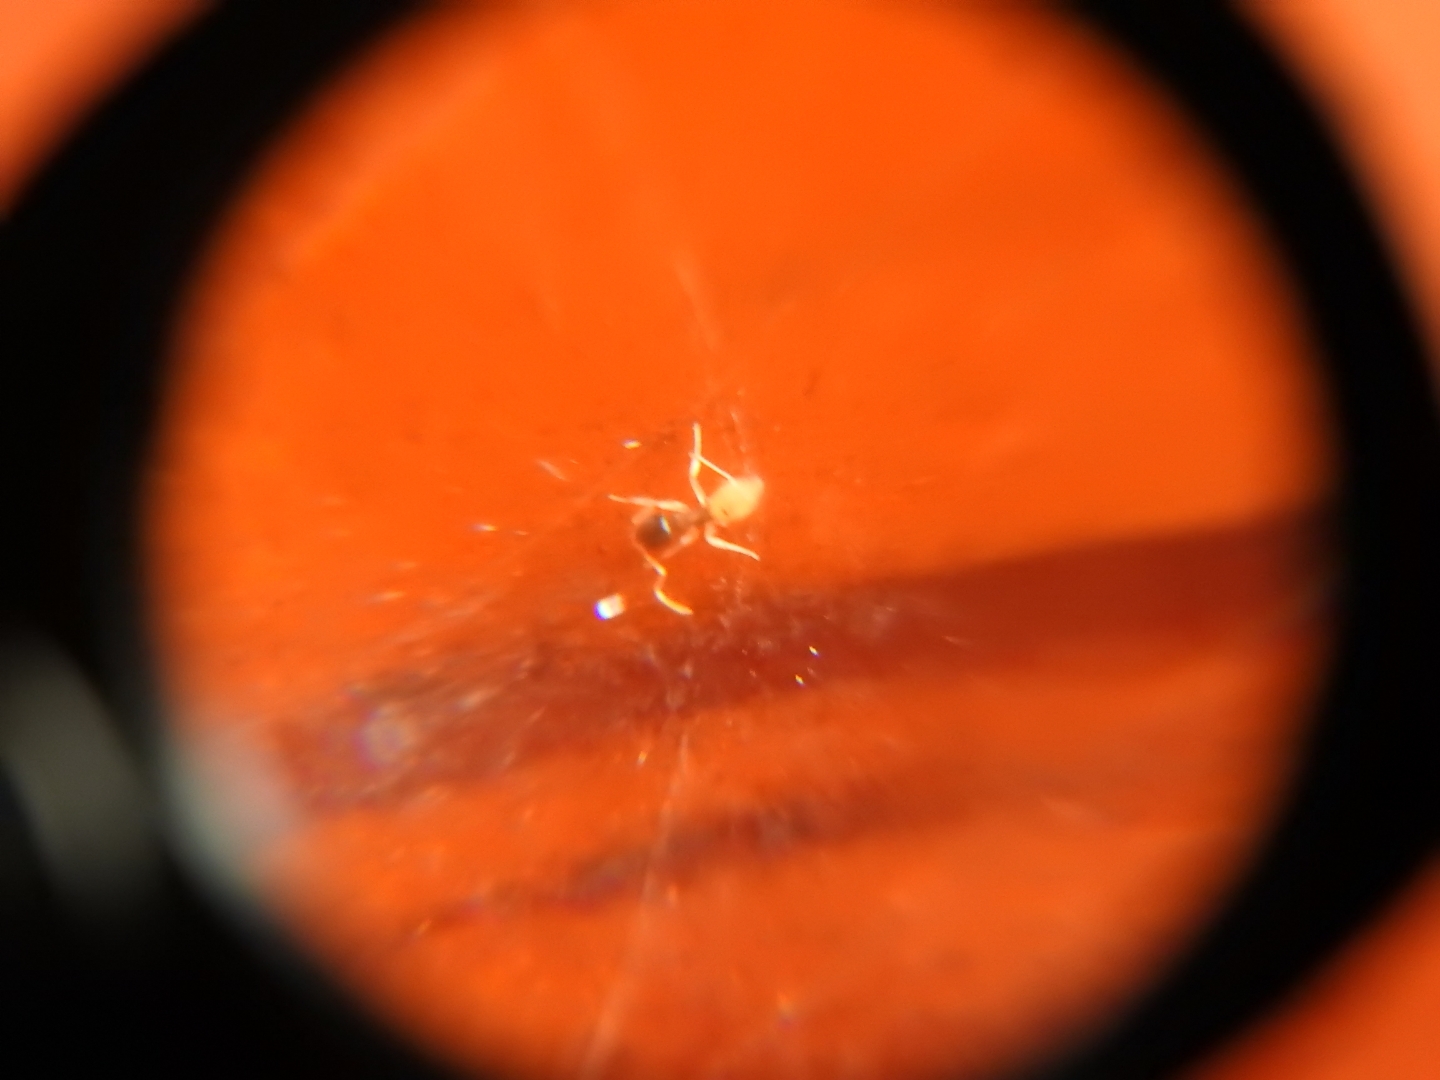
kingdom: Animalia
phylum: Arthropoda
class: Insecta
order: Hymenoptera
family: Formicidae
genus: Tapinoma
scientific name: Tapinoma melanocephalum
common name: Ghost ant
